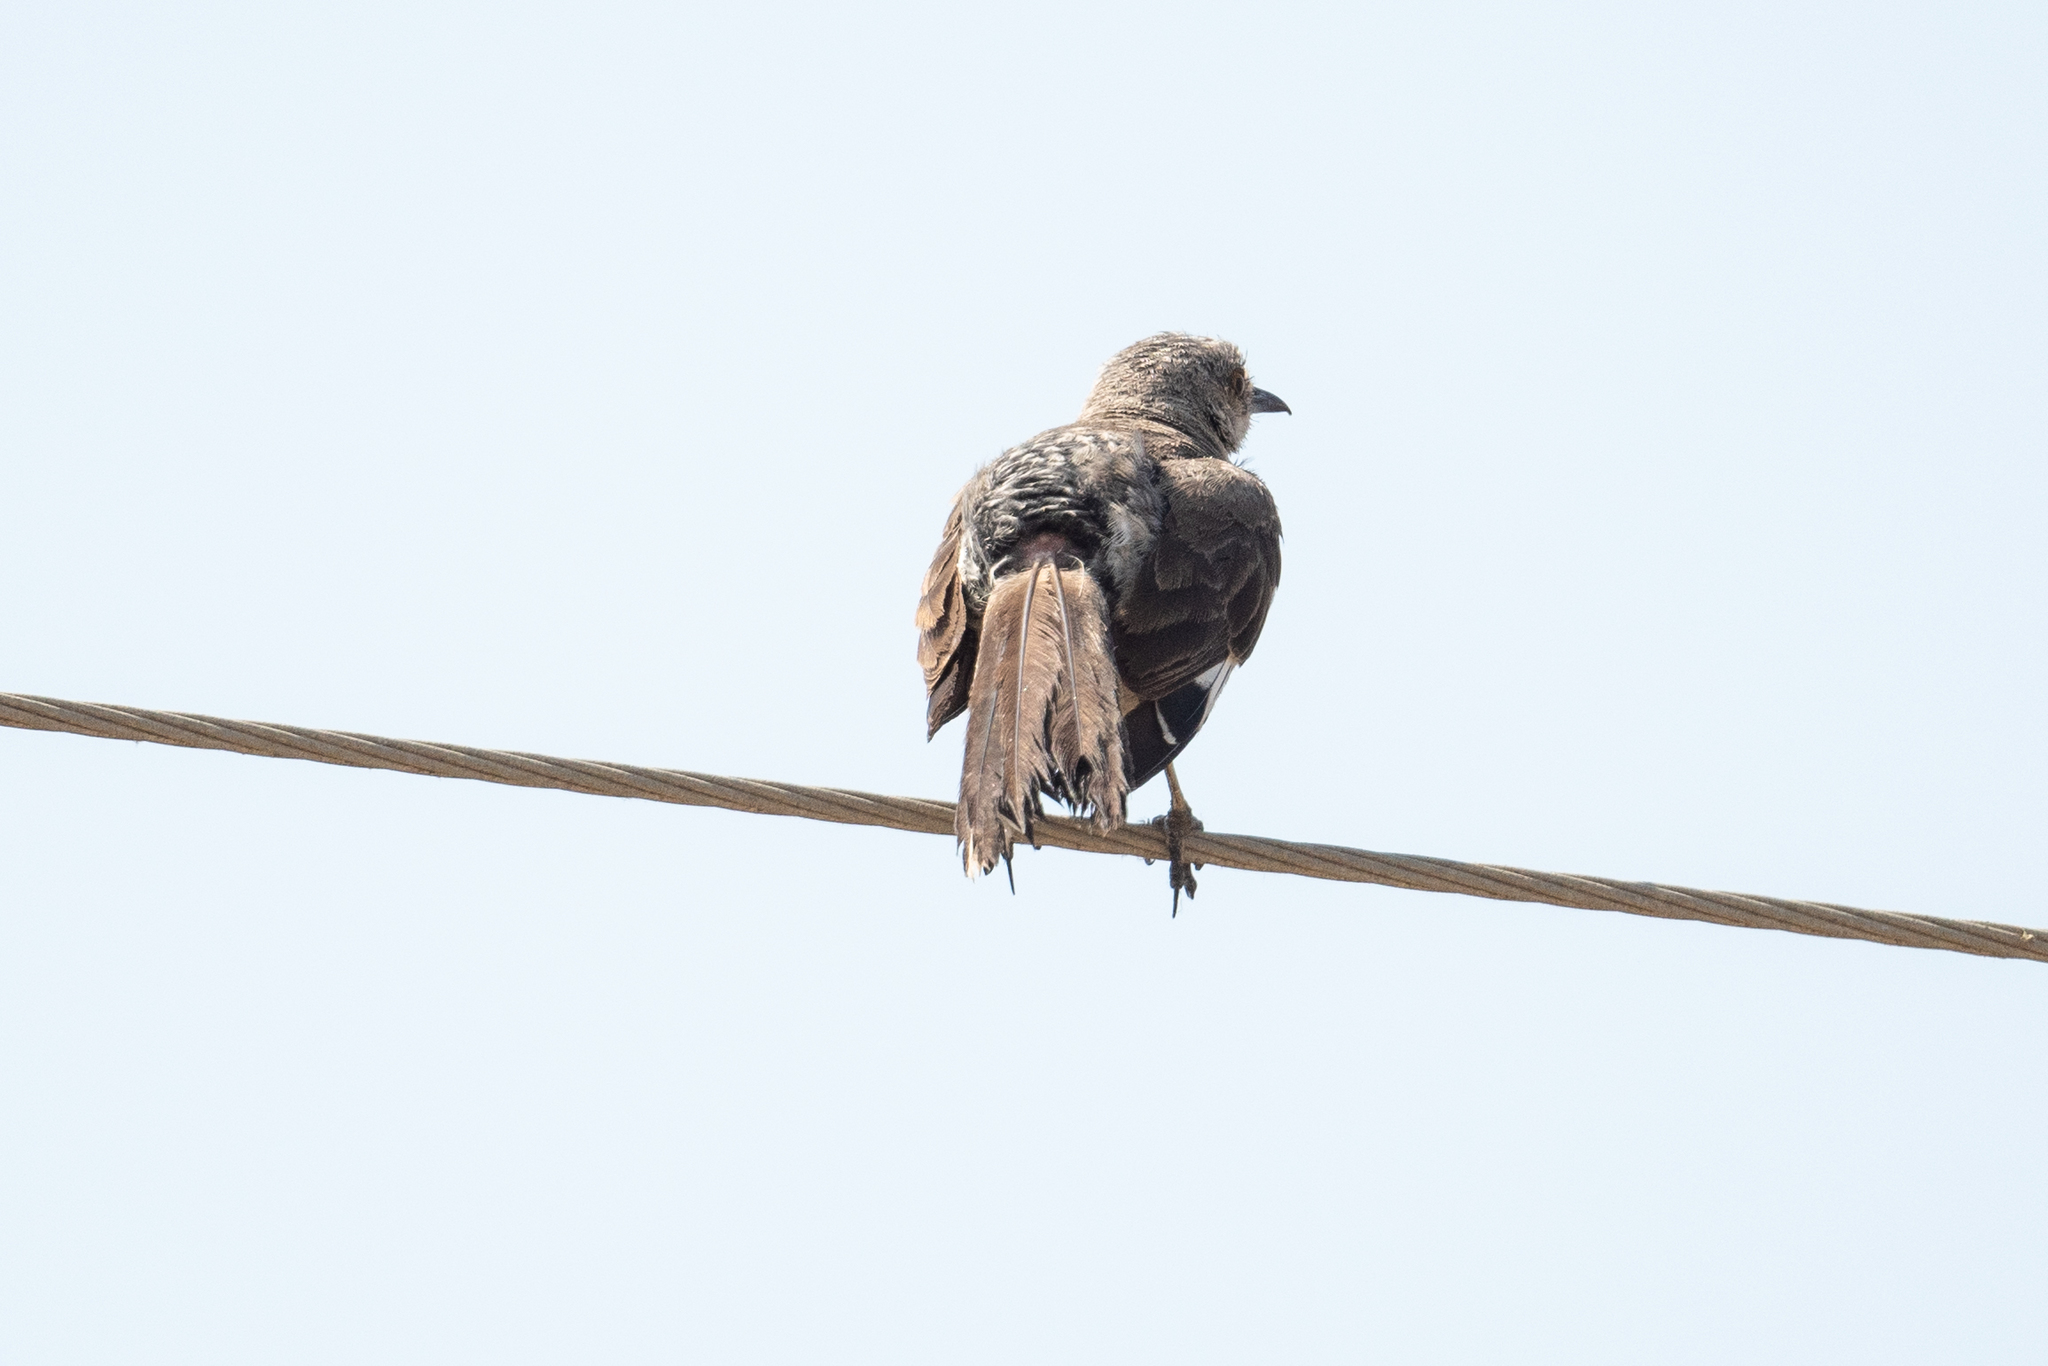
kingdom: Animalia
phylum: Chordata
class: Aves
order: Passeriformes
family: Mimidae
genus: Mimus
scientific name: Mimus polyglottos
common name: Northern mockingbird
